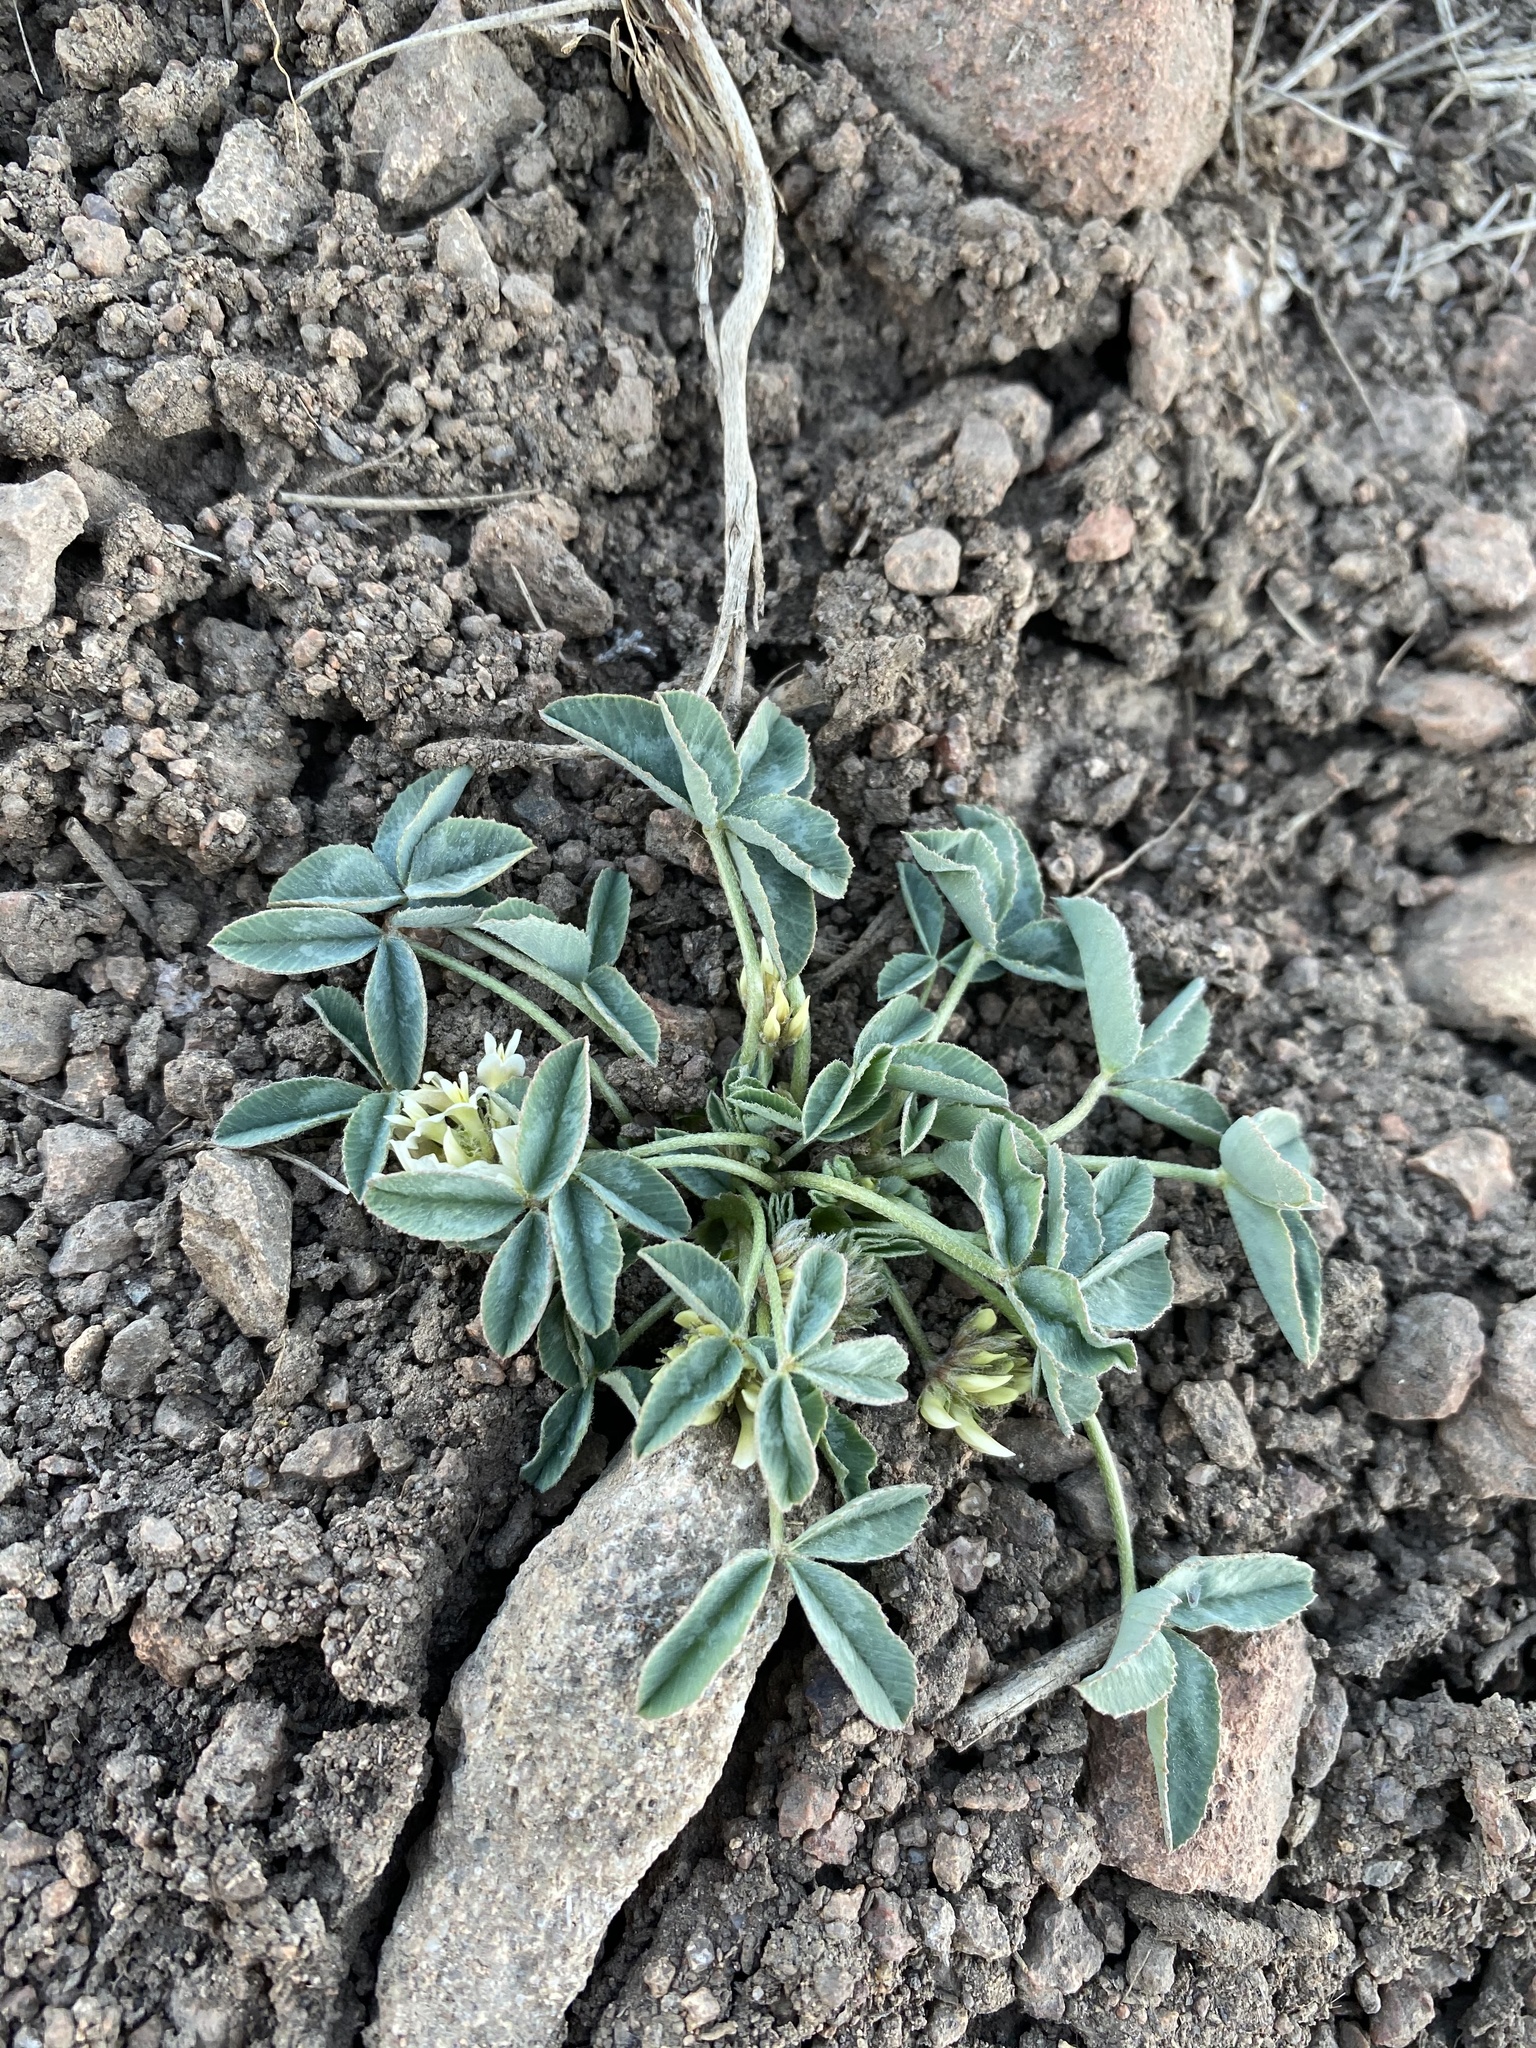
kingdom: Plantae
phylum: Tracheophyta
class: Magnoliopsida
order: Fabales
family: Fabaceae
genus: Trifolium
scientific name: Trifolium gymnocarpon
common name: Tufted clover
